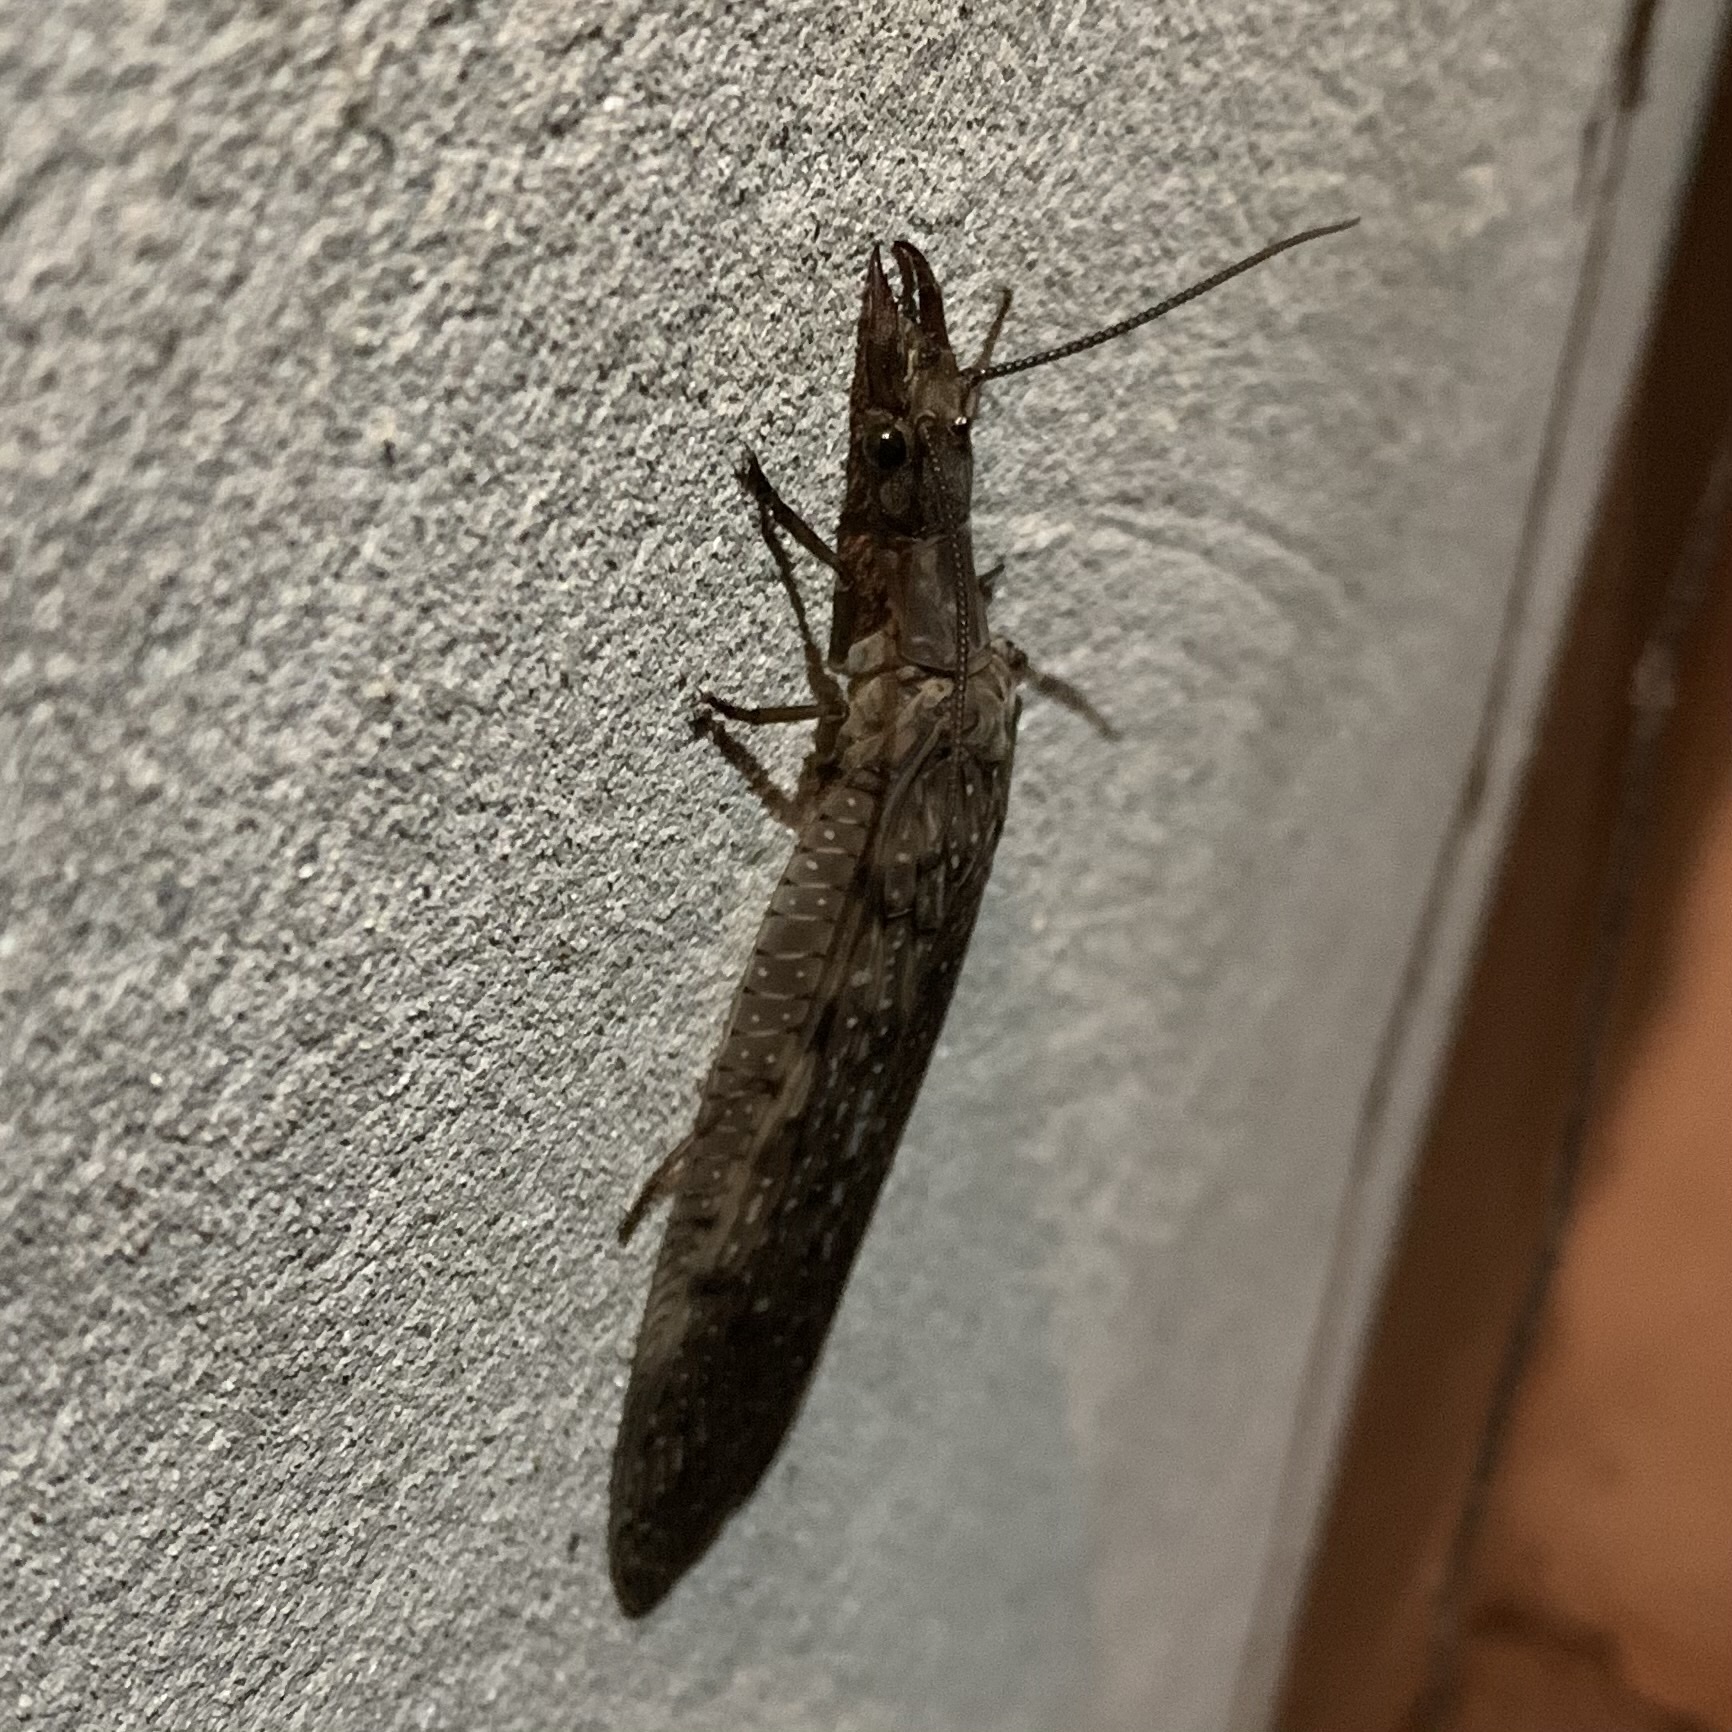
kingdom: Animalia
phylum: Arthropoda
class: Insecta
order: Megaloptera
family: Corydalidae
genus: Corydalus
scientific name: Corydalus cornutus
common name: Dobsonfly
